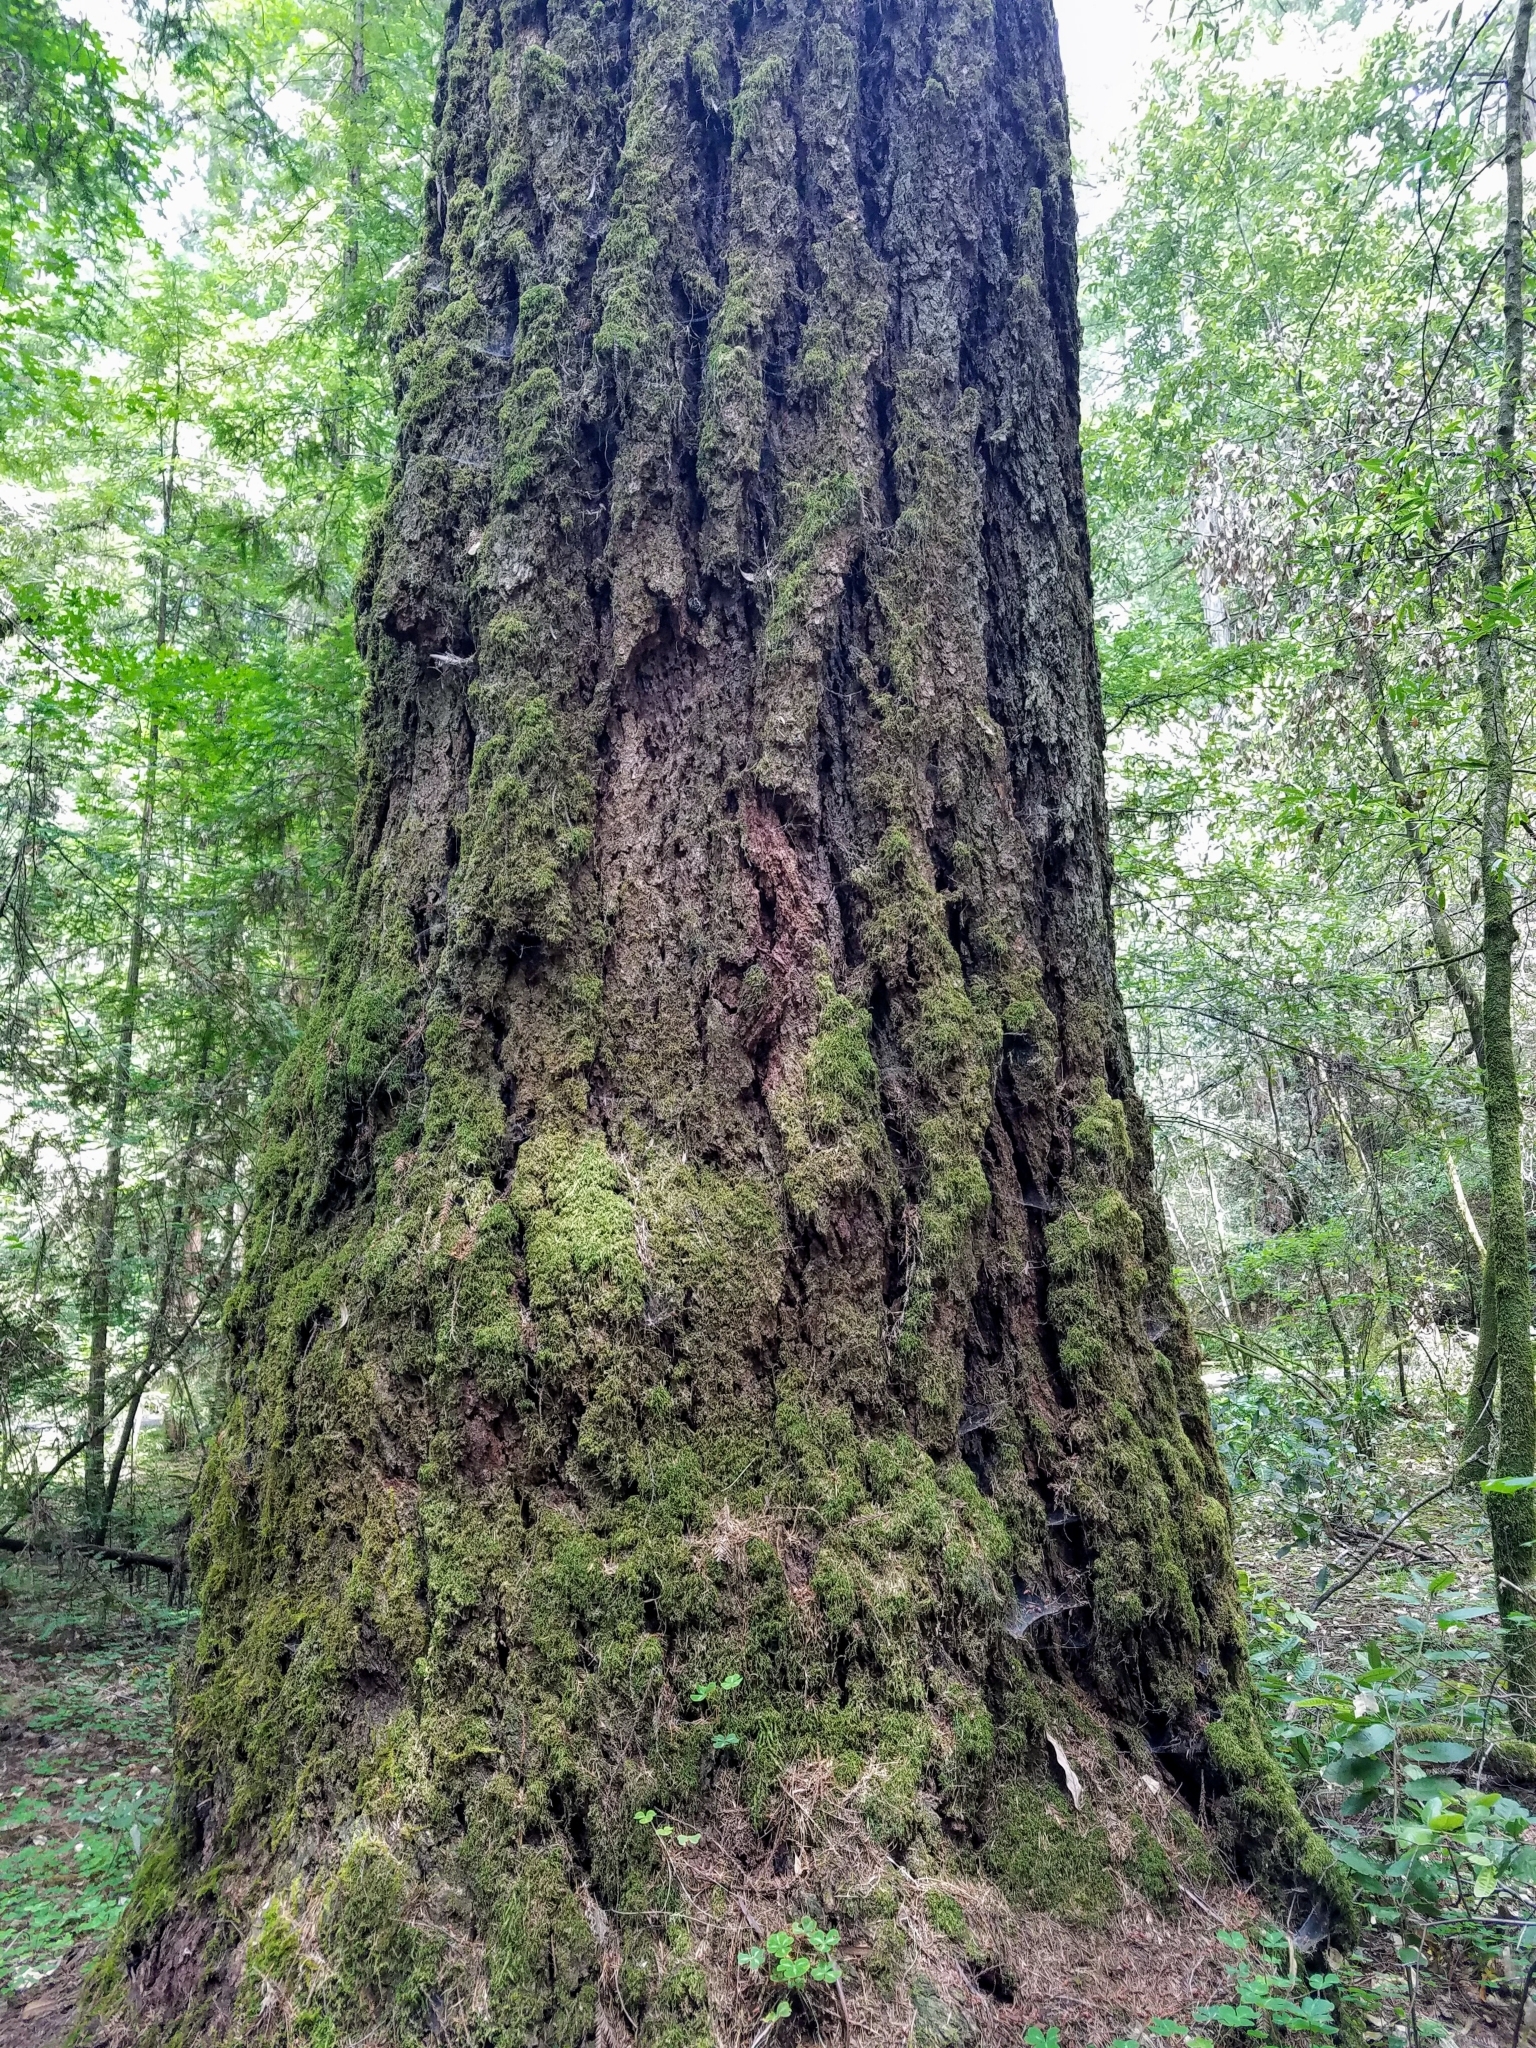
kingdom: Plantae
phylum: Tracheophyta
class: Pinopsida
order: Pinales
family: Pinaceae
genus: Pseudotsuga
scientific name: Pseudotsuga menziesii
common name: Douglas fir
